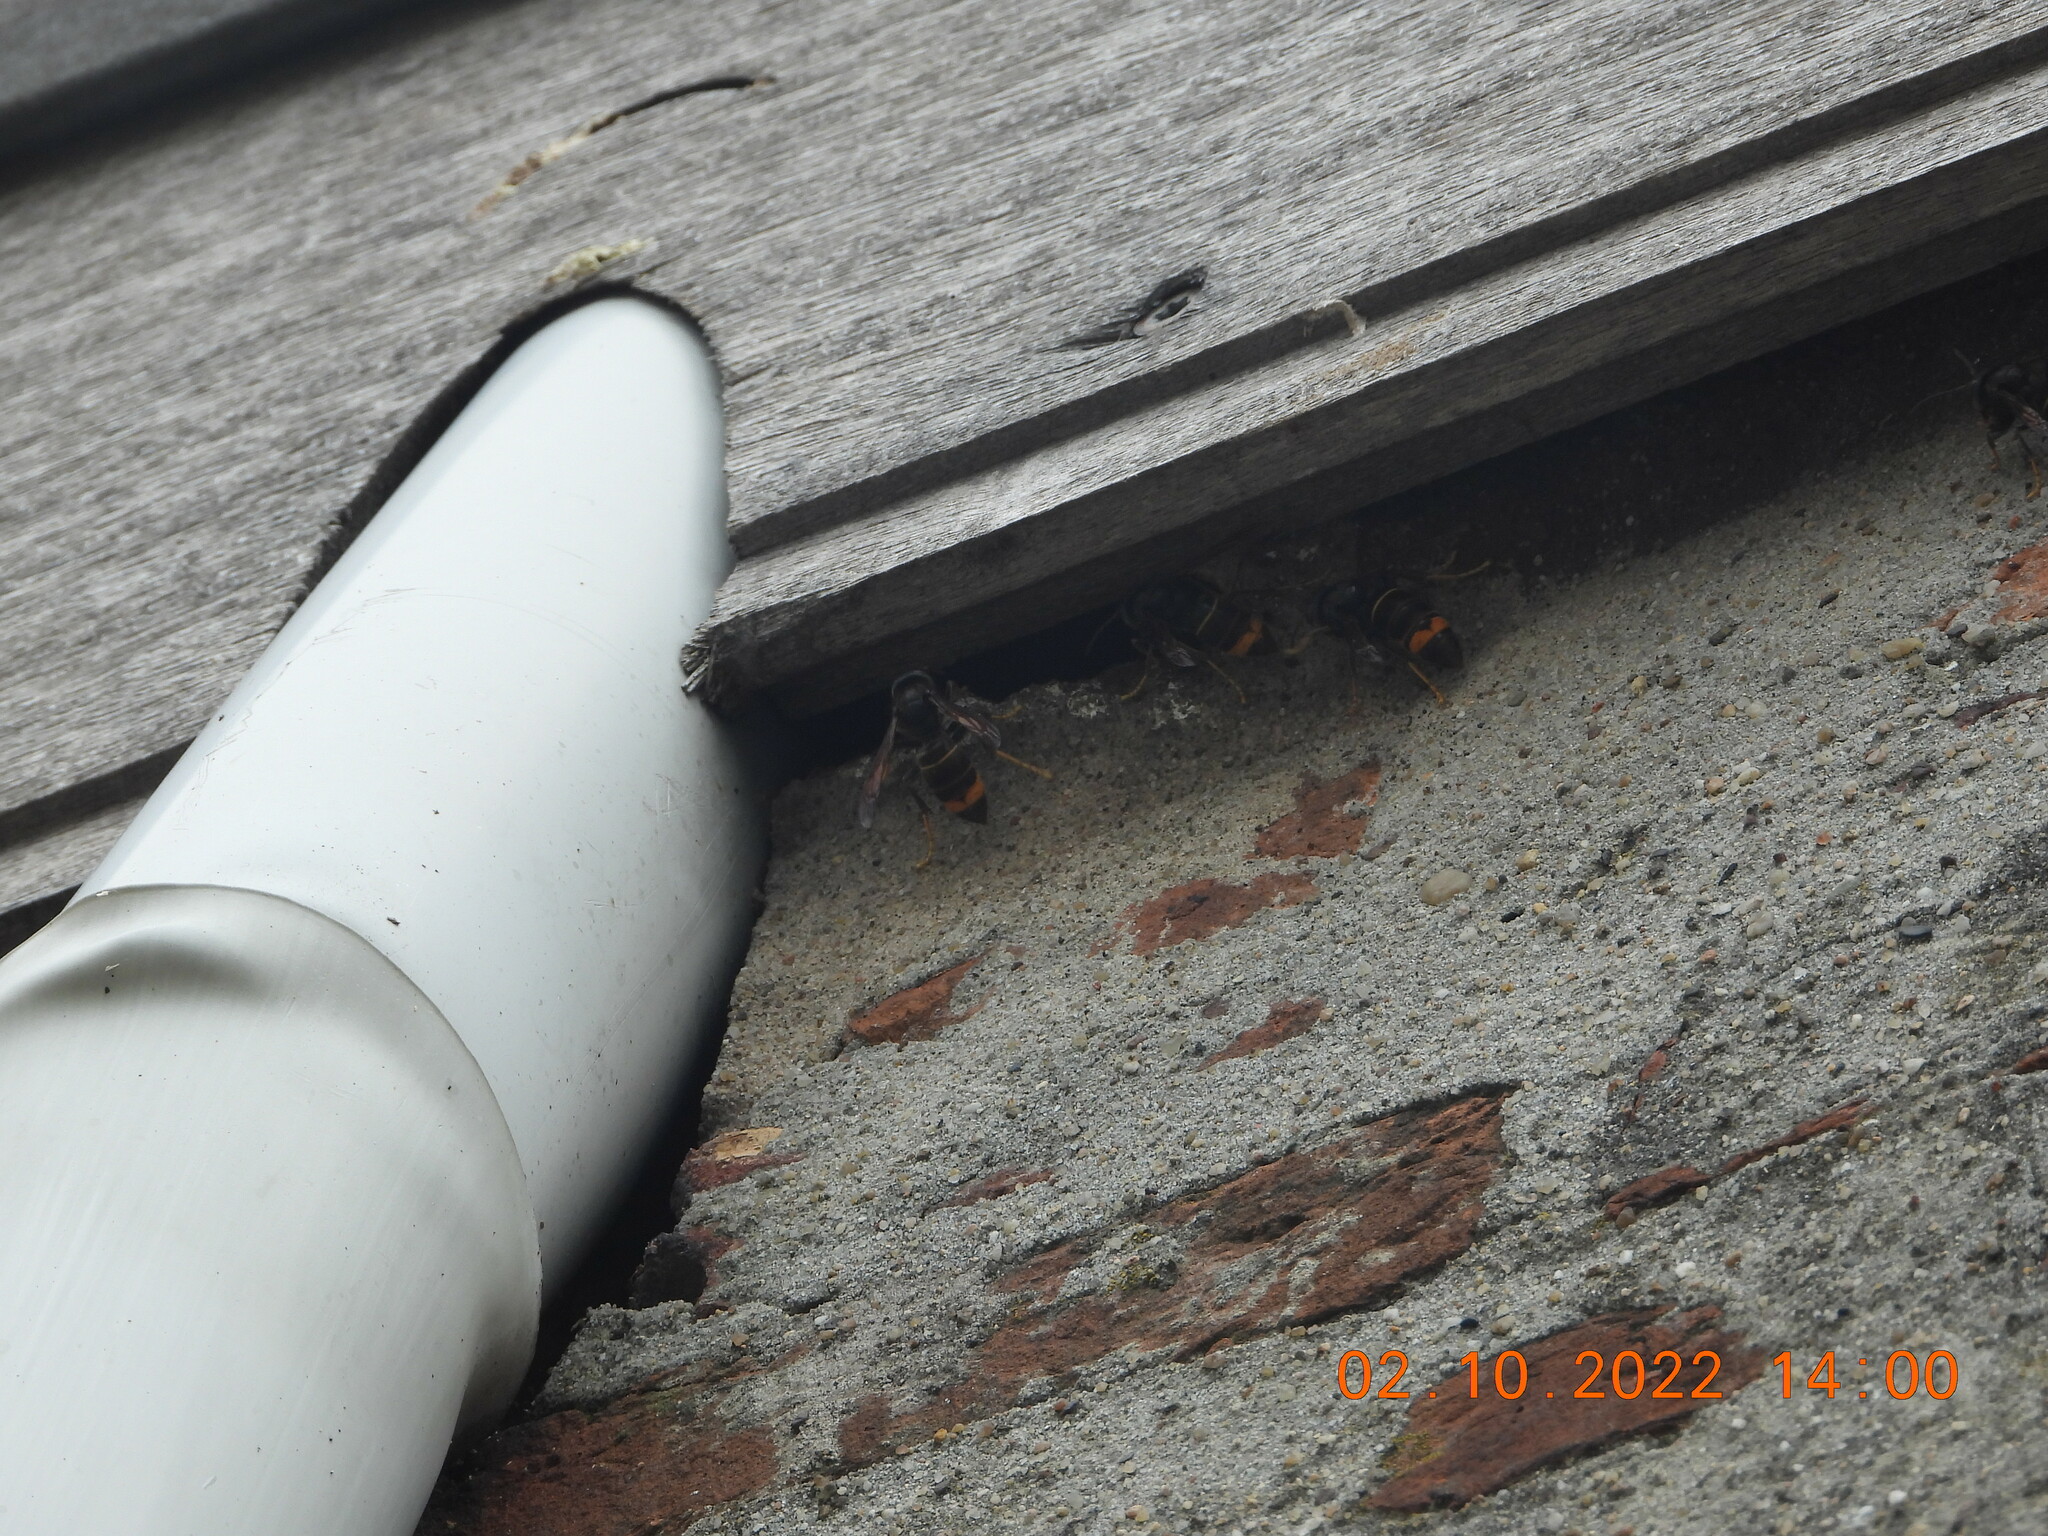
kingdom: Animalia
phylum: Arthropoda
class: Insecta
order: Hymenoptera
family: Vespidae
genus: Vespa
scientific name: Vespa velutina
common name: Asian hornet
